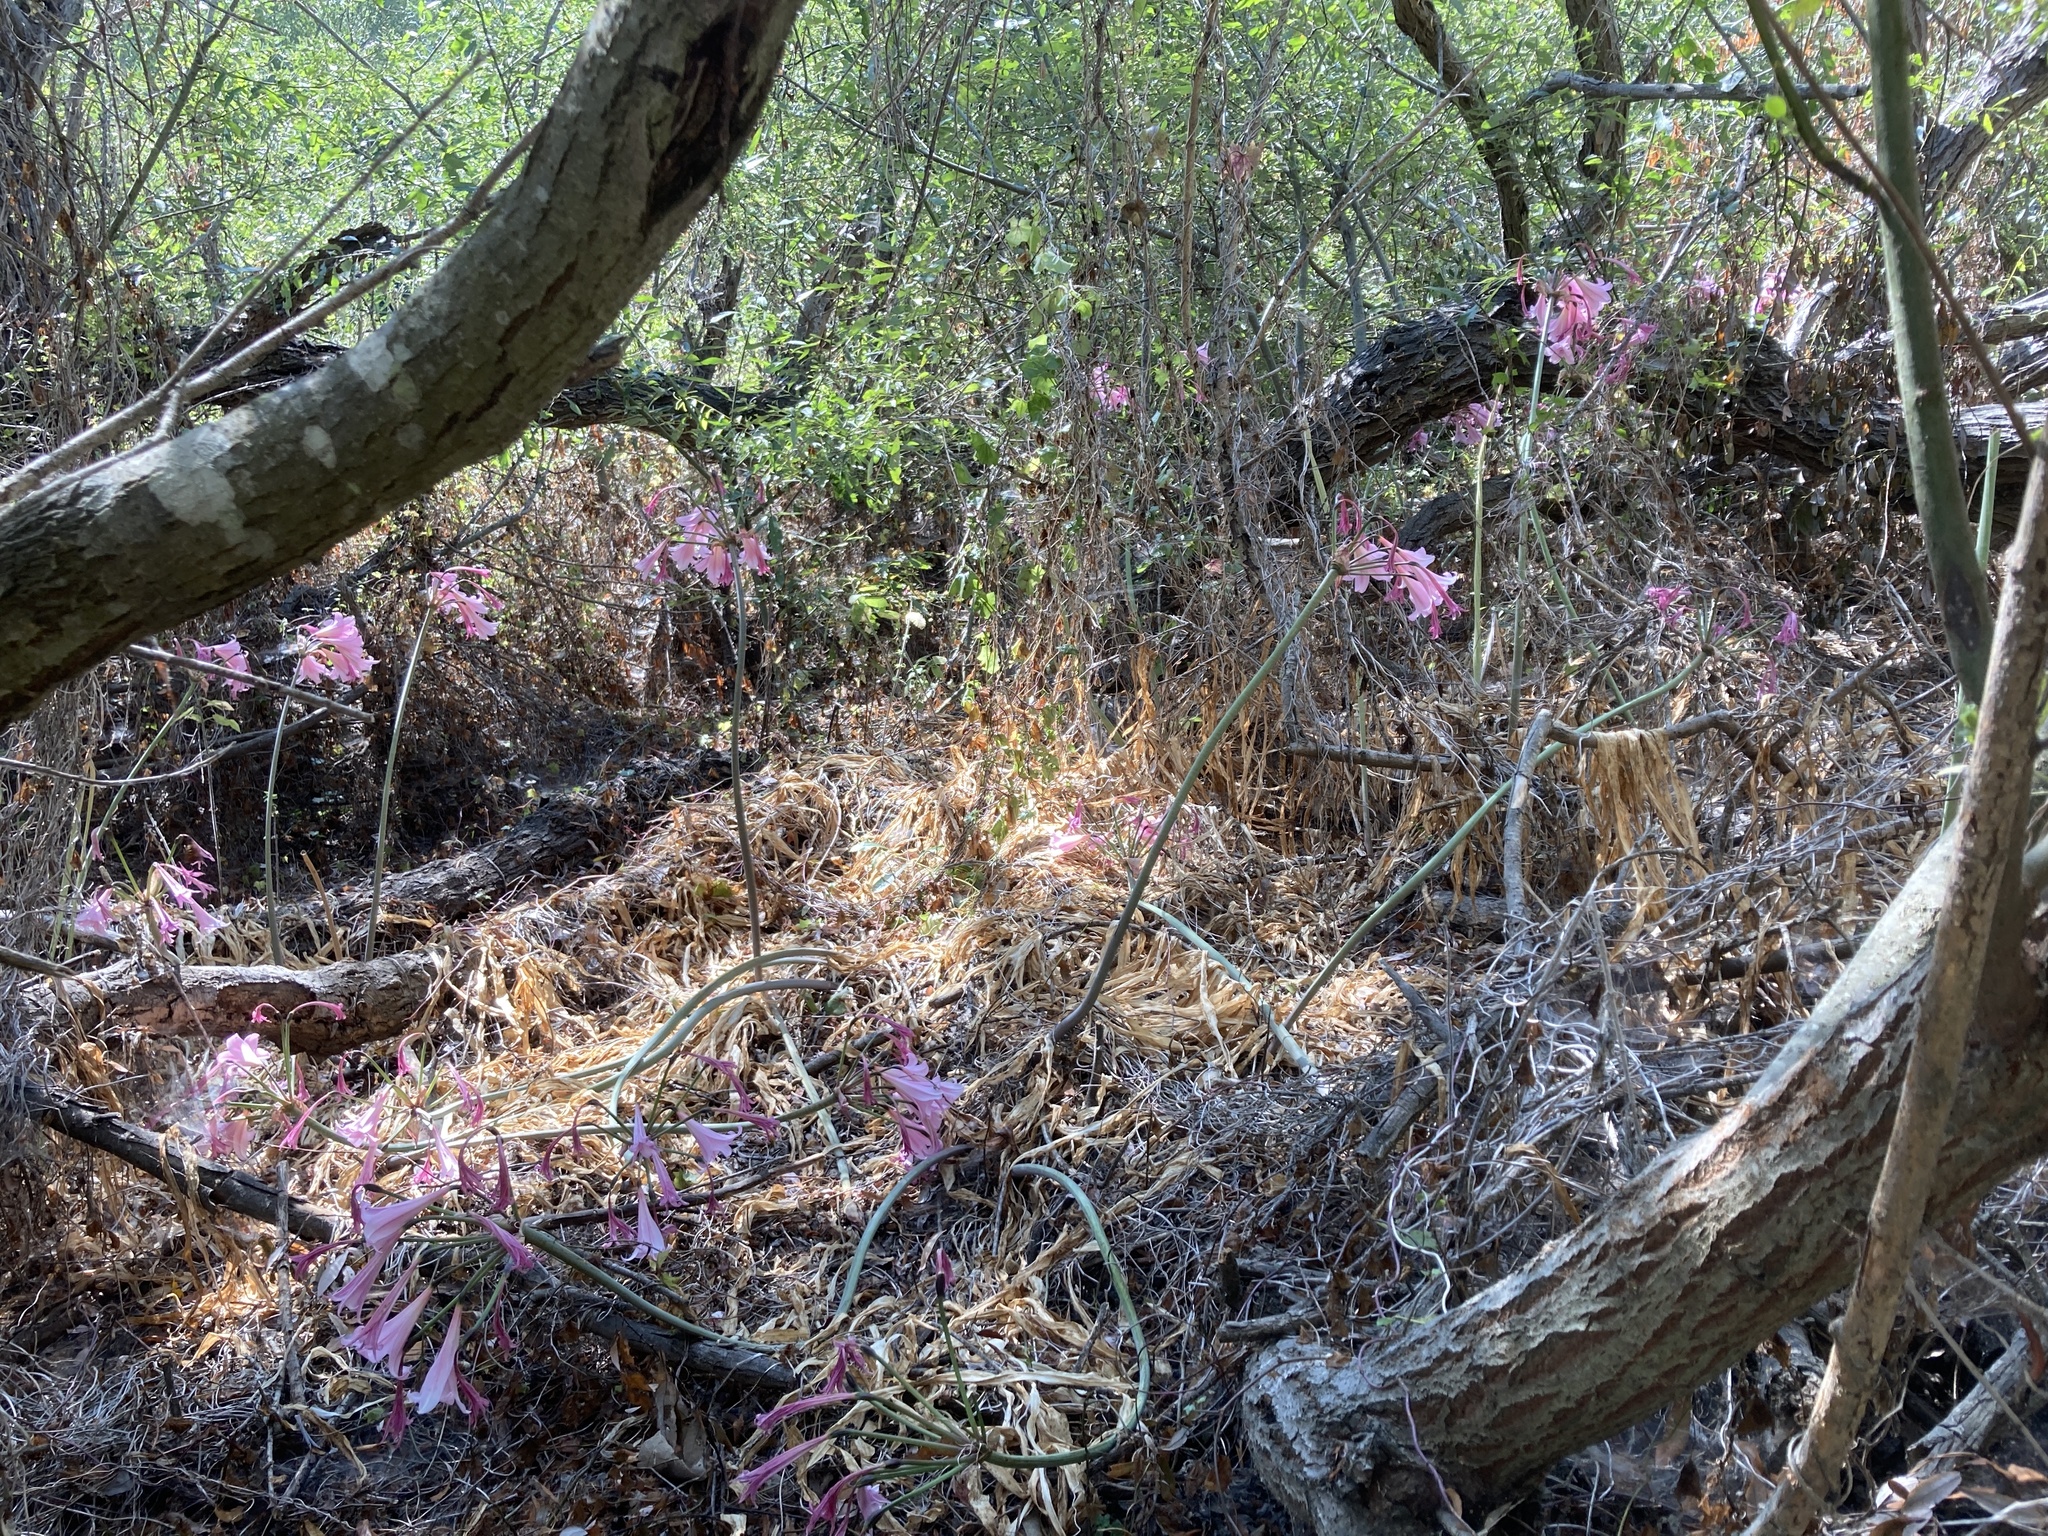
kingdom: Plantae
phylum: Tracheophyta
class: Liliopsida
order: Asparagales
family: Amaryllidaceae
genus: Amaryllis
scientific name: Amaryllis belladonna
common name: Jersey lily
